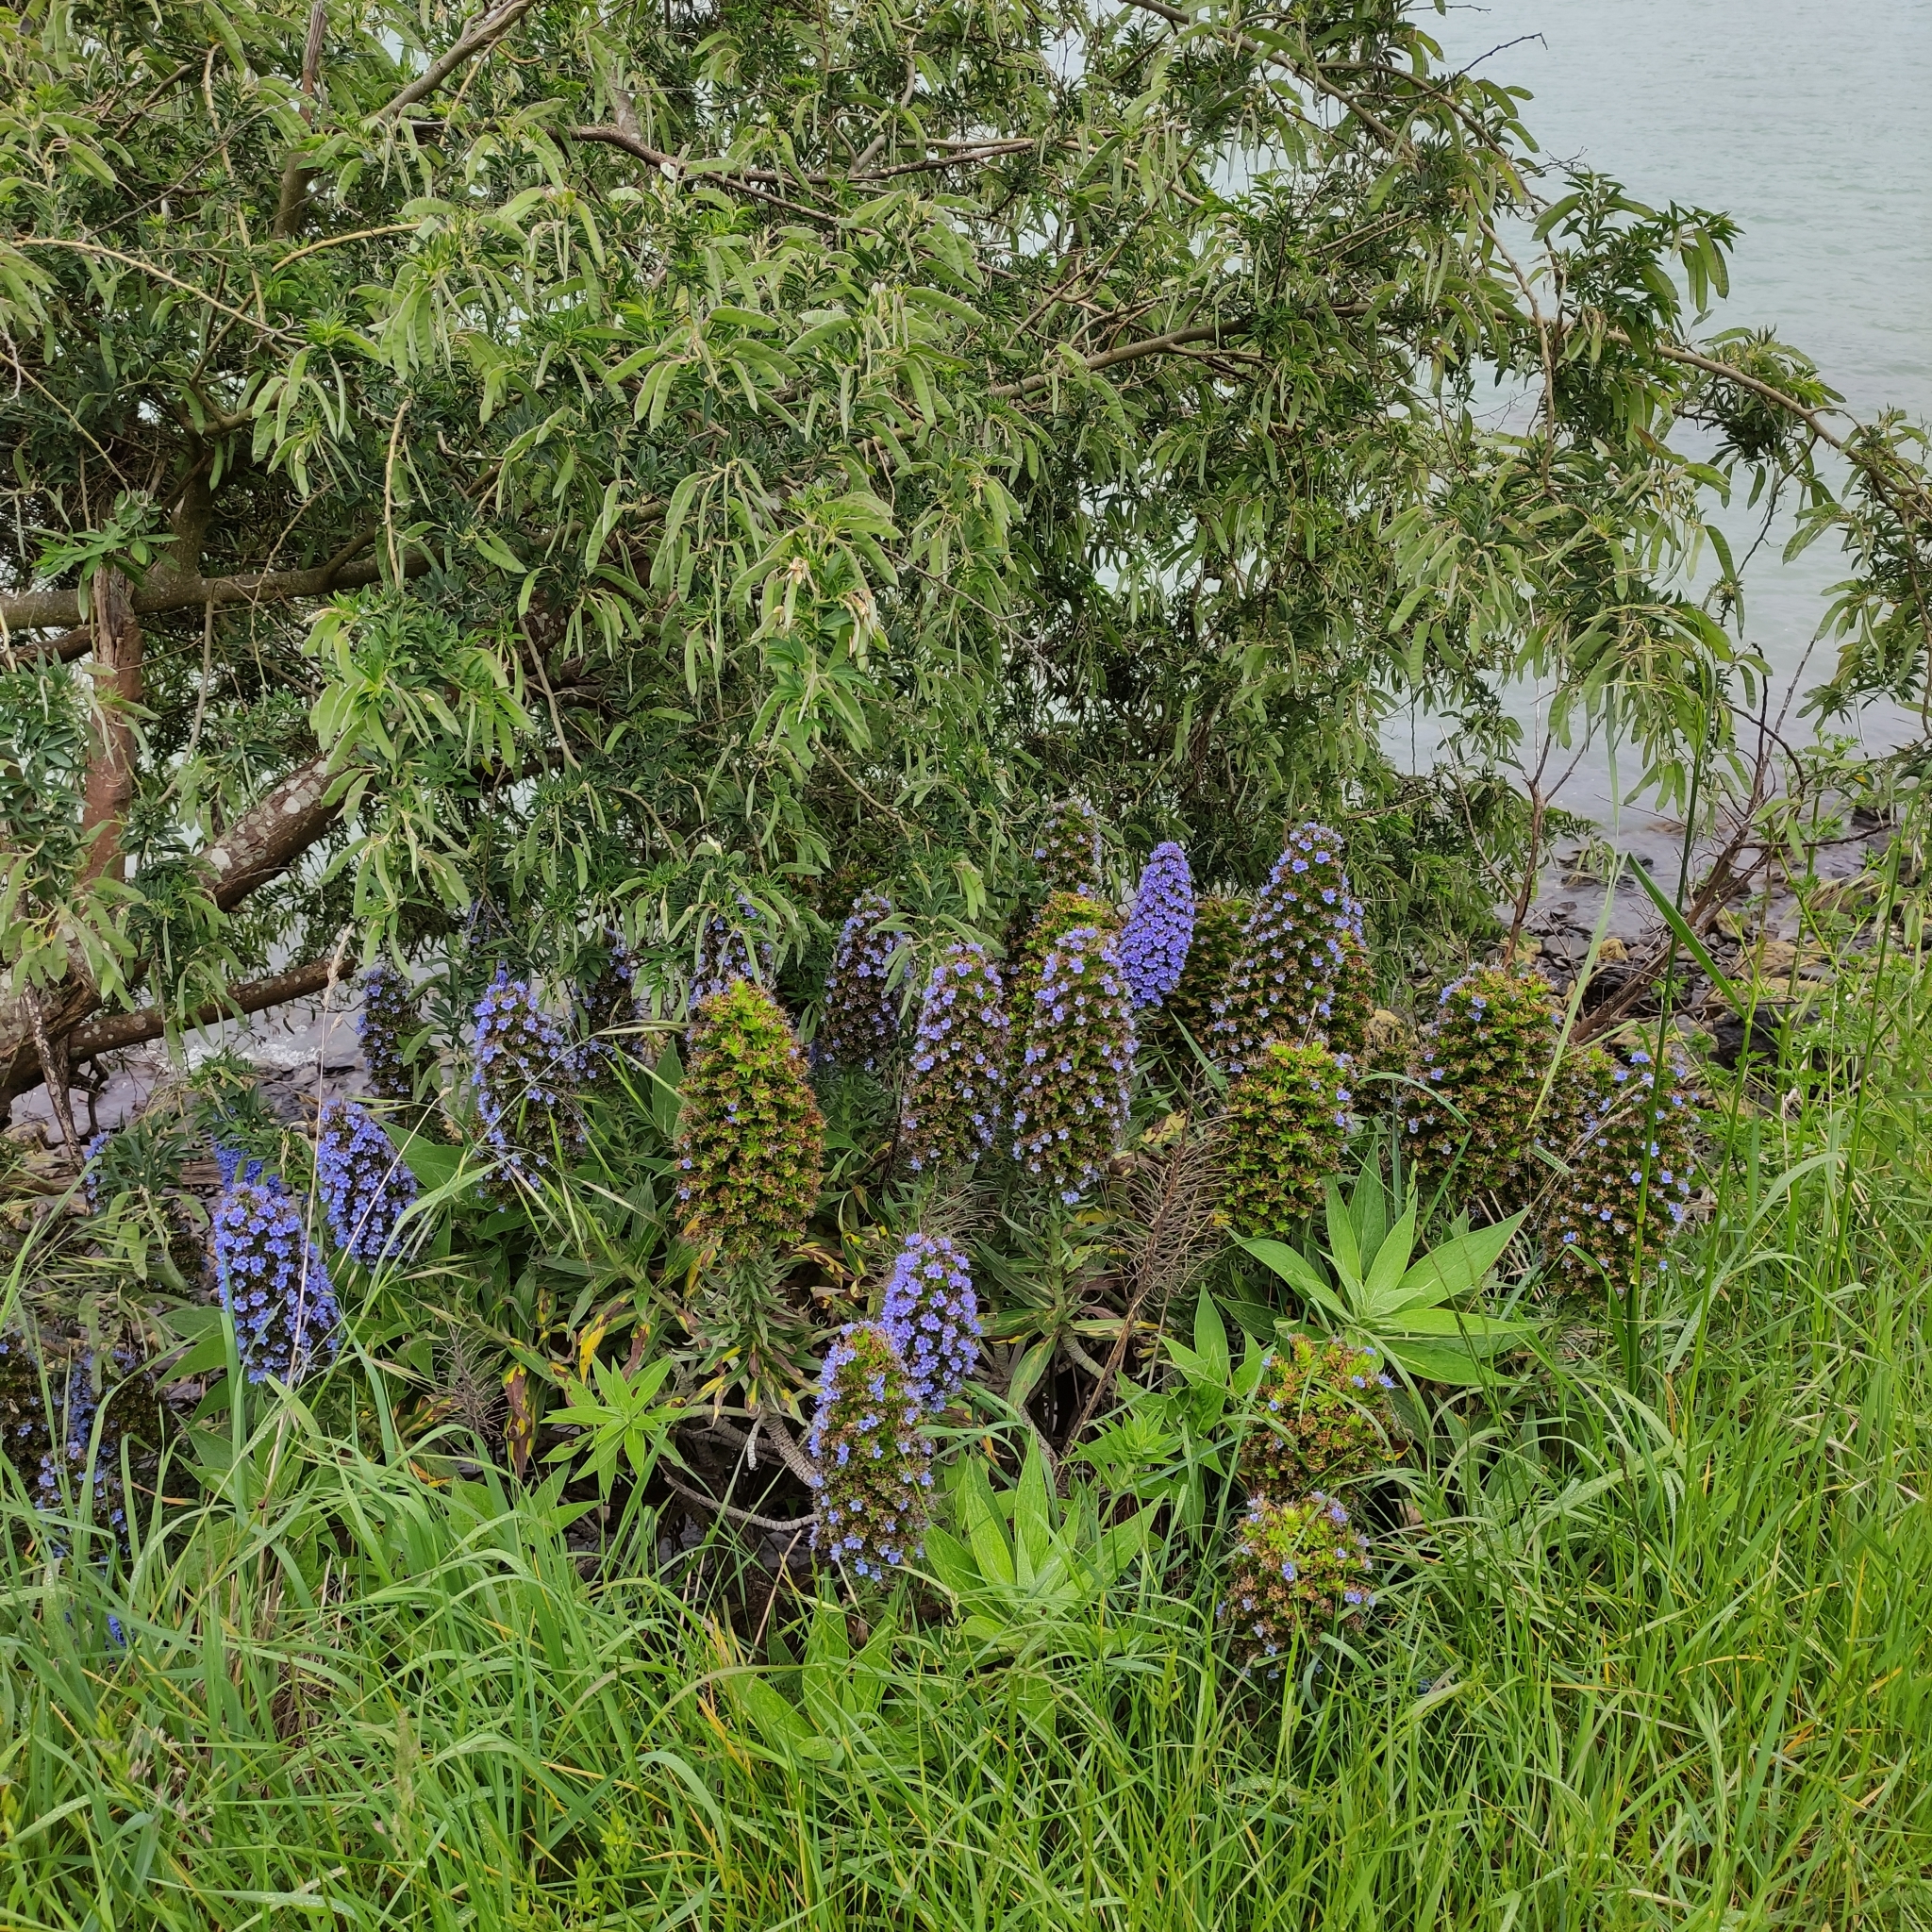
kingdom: Plantae
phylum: Tracheophyta
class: Magnoliopsida
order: Boraginales
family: Boraginaceae
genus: Echium
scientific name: Echium candicans
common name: Pride of madeira
